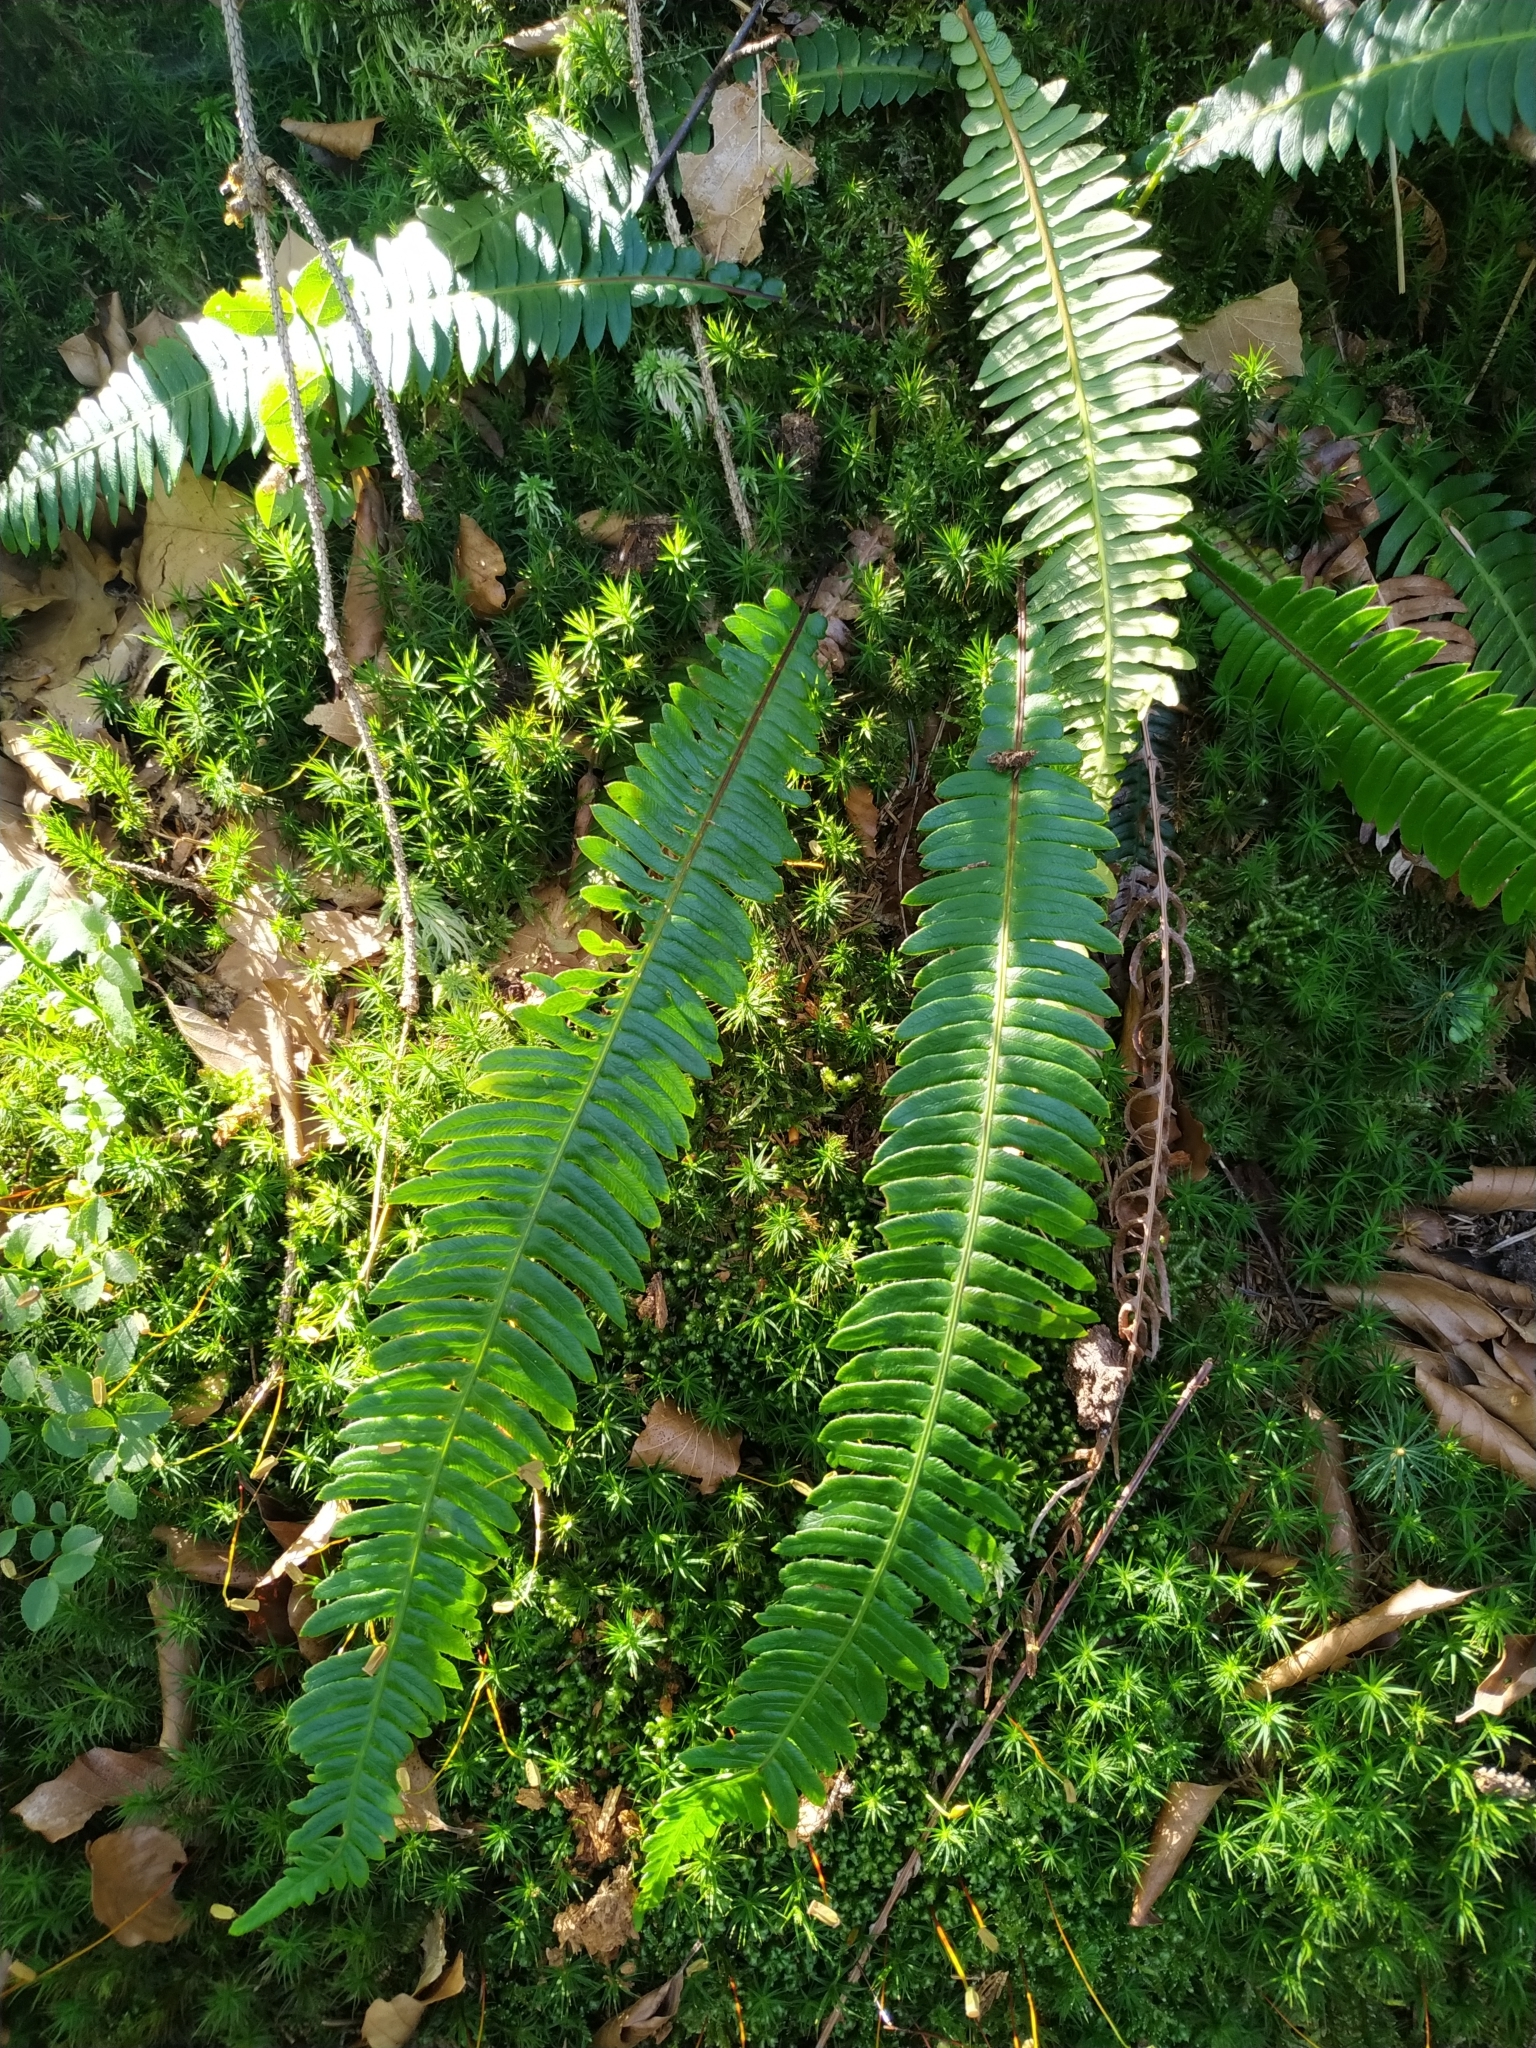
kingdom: Plantae
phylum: Tracheophyta
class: Polypodiopsida
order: Polypodiales
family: Blechnaceae
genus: Struthiopteris
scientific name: Struthiopteris spicant
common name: Deer fern
